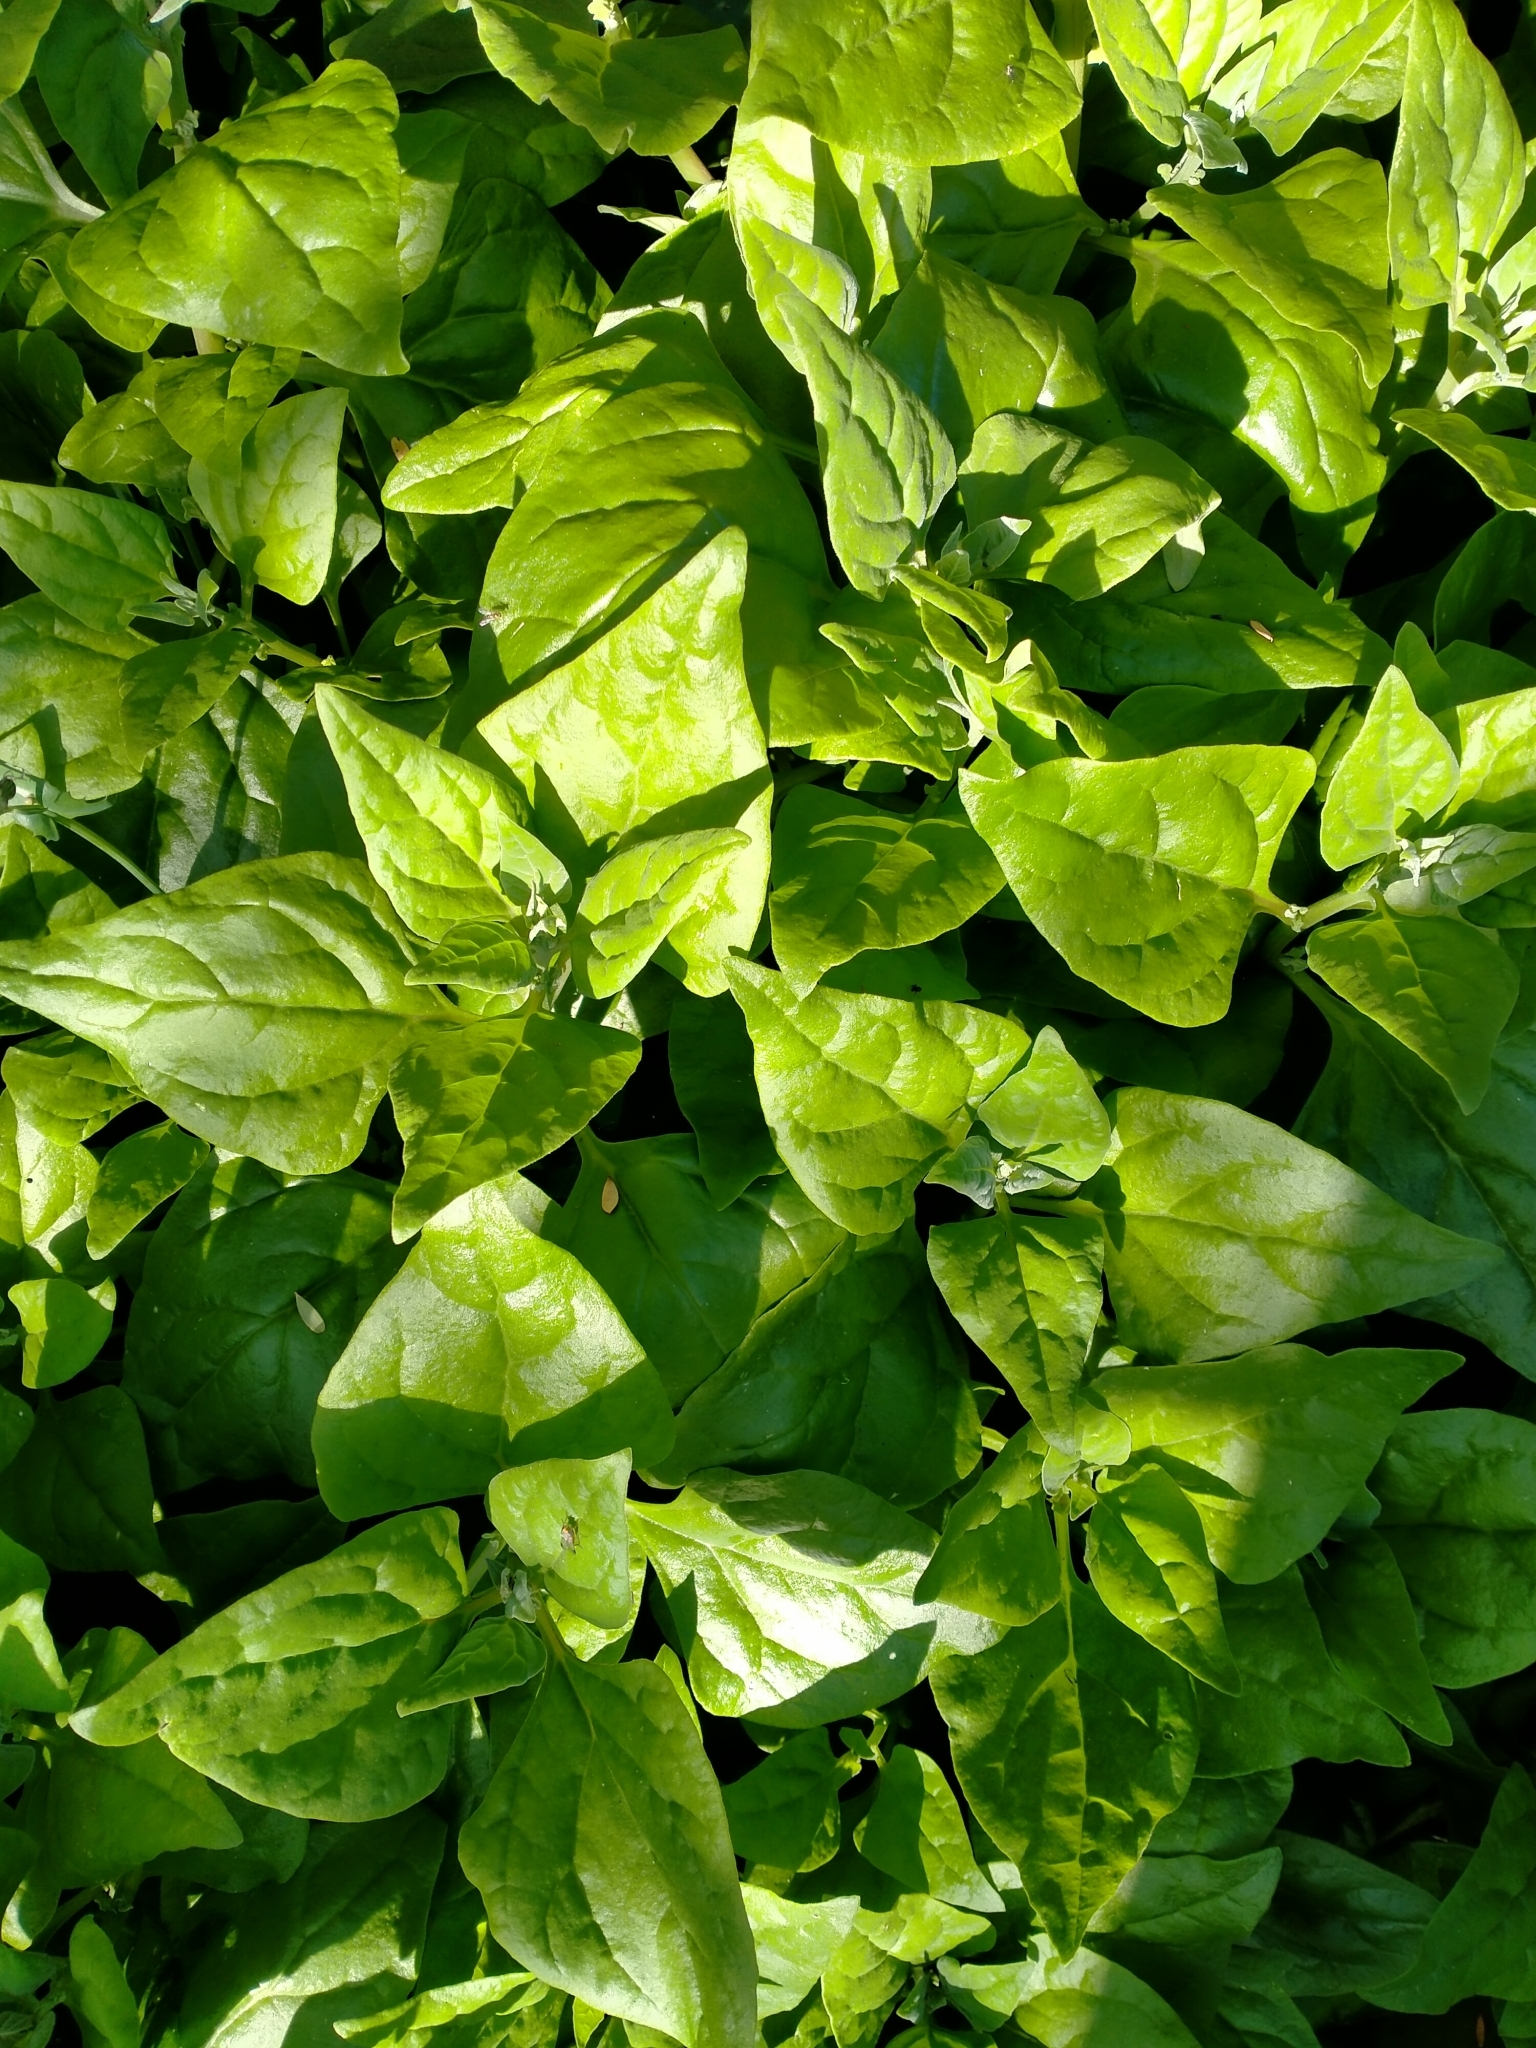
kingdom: Plantae
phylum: Tracheophyta
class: Magnoliopsida
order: Caryophyllales
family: Aizoaceae
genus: Tetragonia
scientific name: Tetragonia tetragonoides
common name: New zealand-spinach
